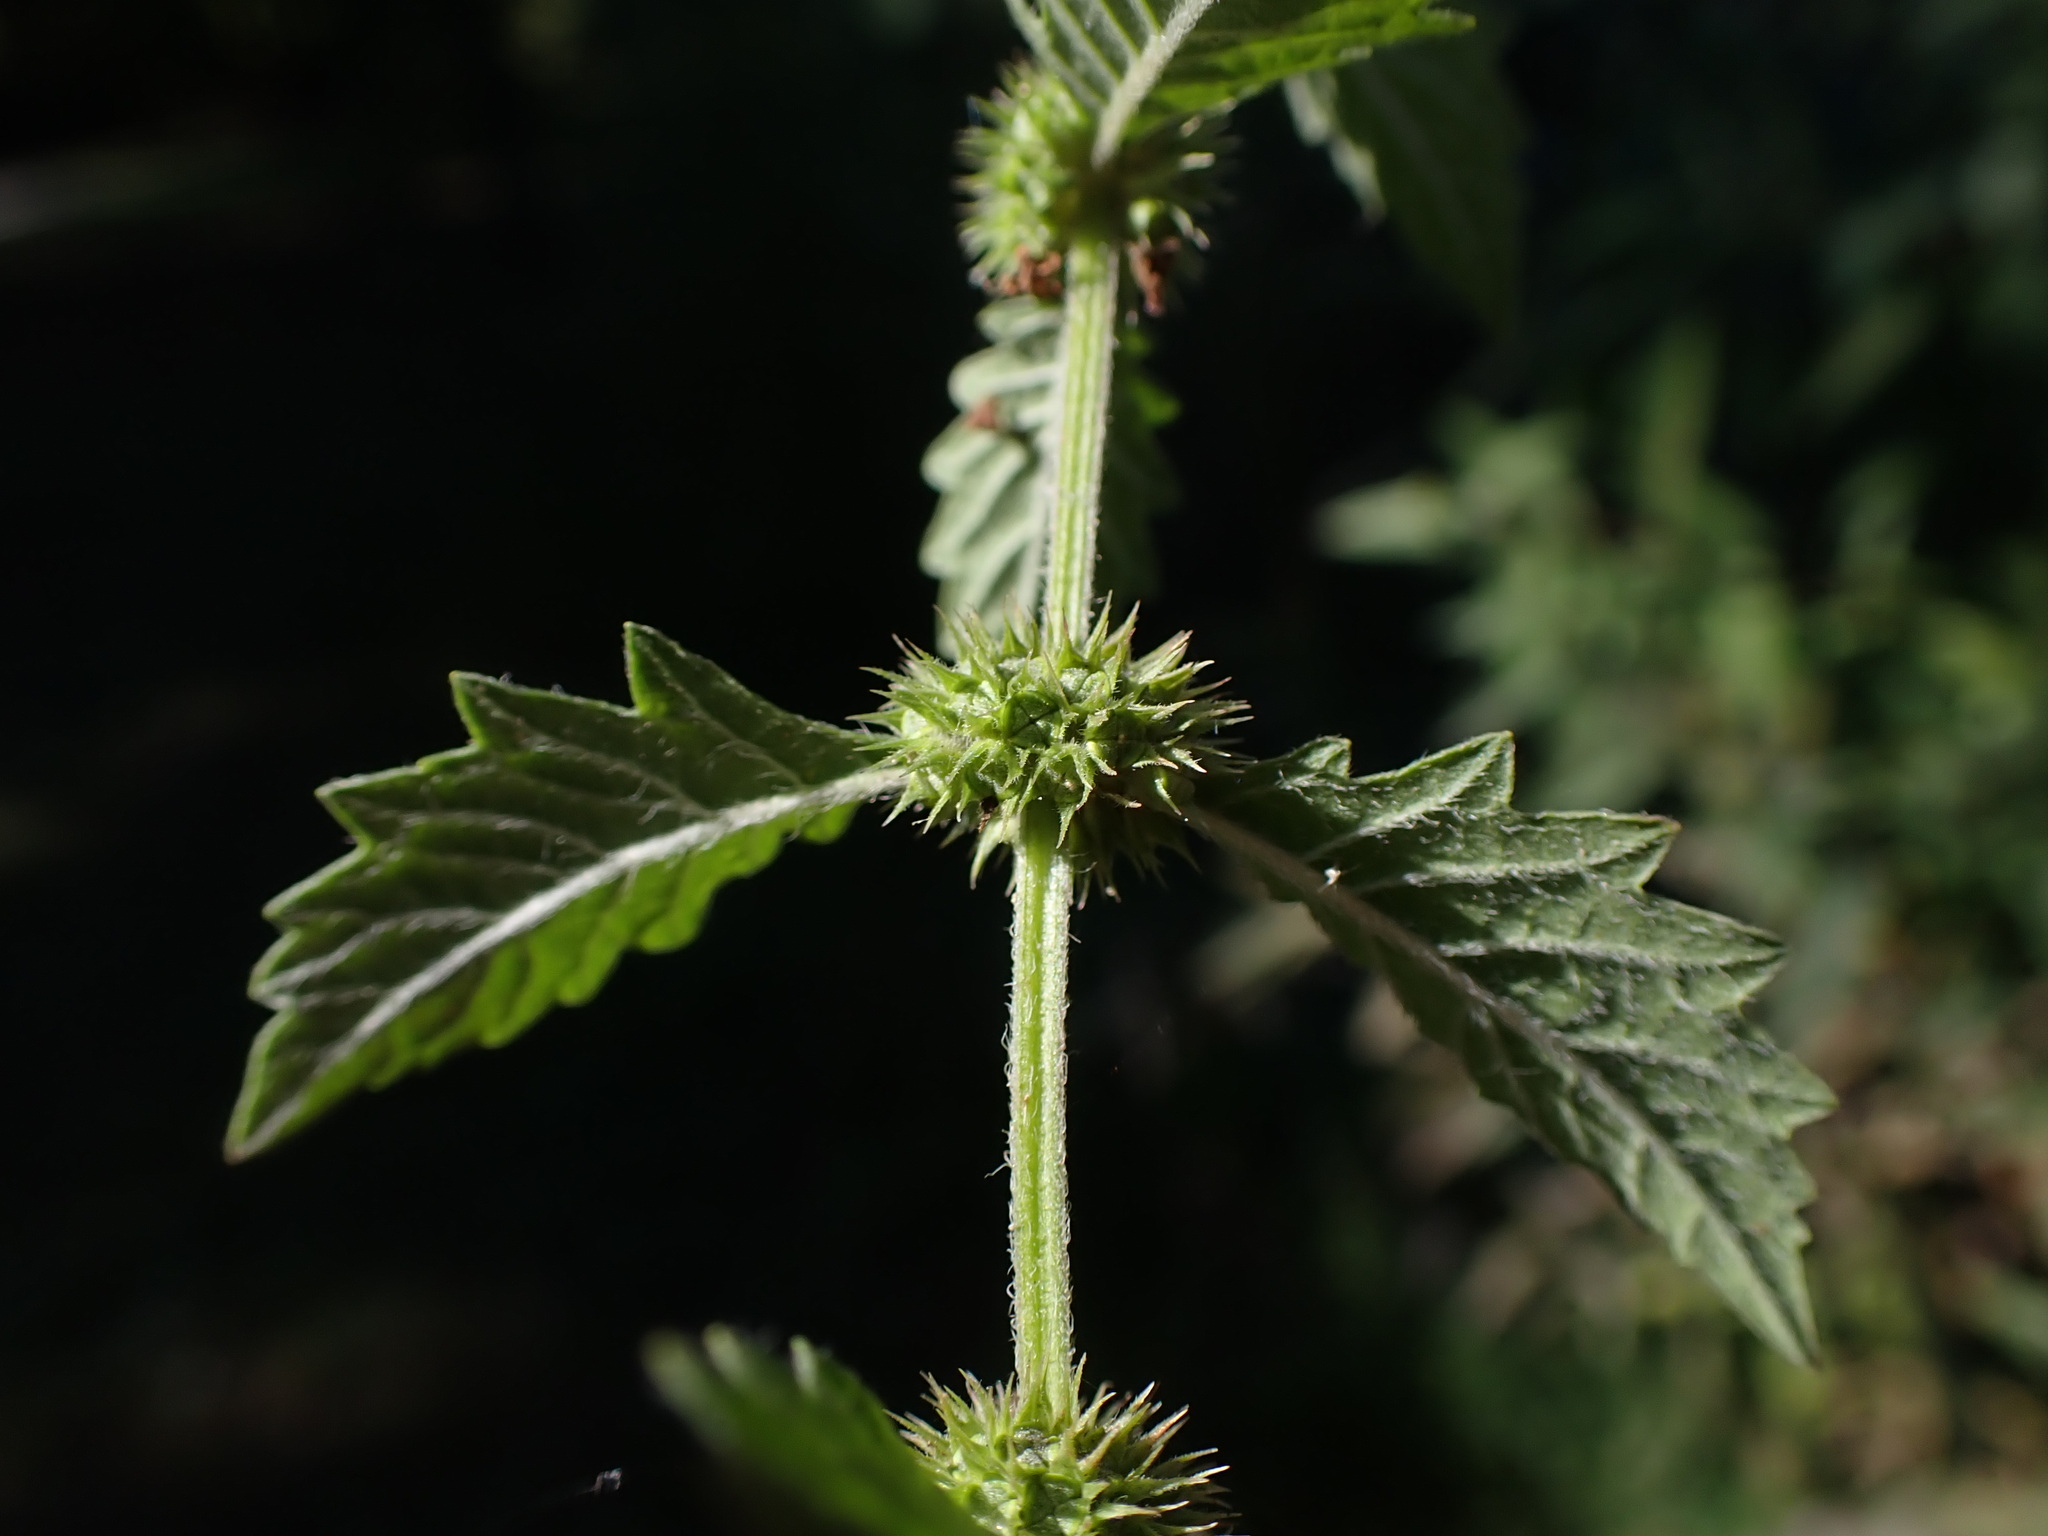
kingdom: Plantae
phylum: Tracheophyta
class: Magnoliopsida
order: Lamiales
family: Lamiaceae
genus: Lycopus
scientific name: Lycopus europaeus
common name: European bugleweed
